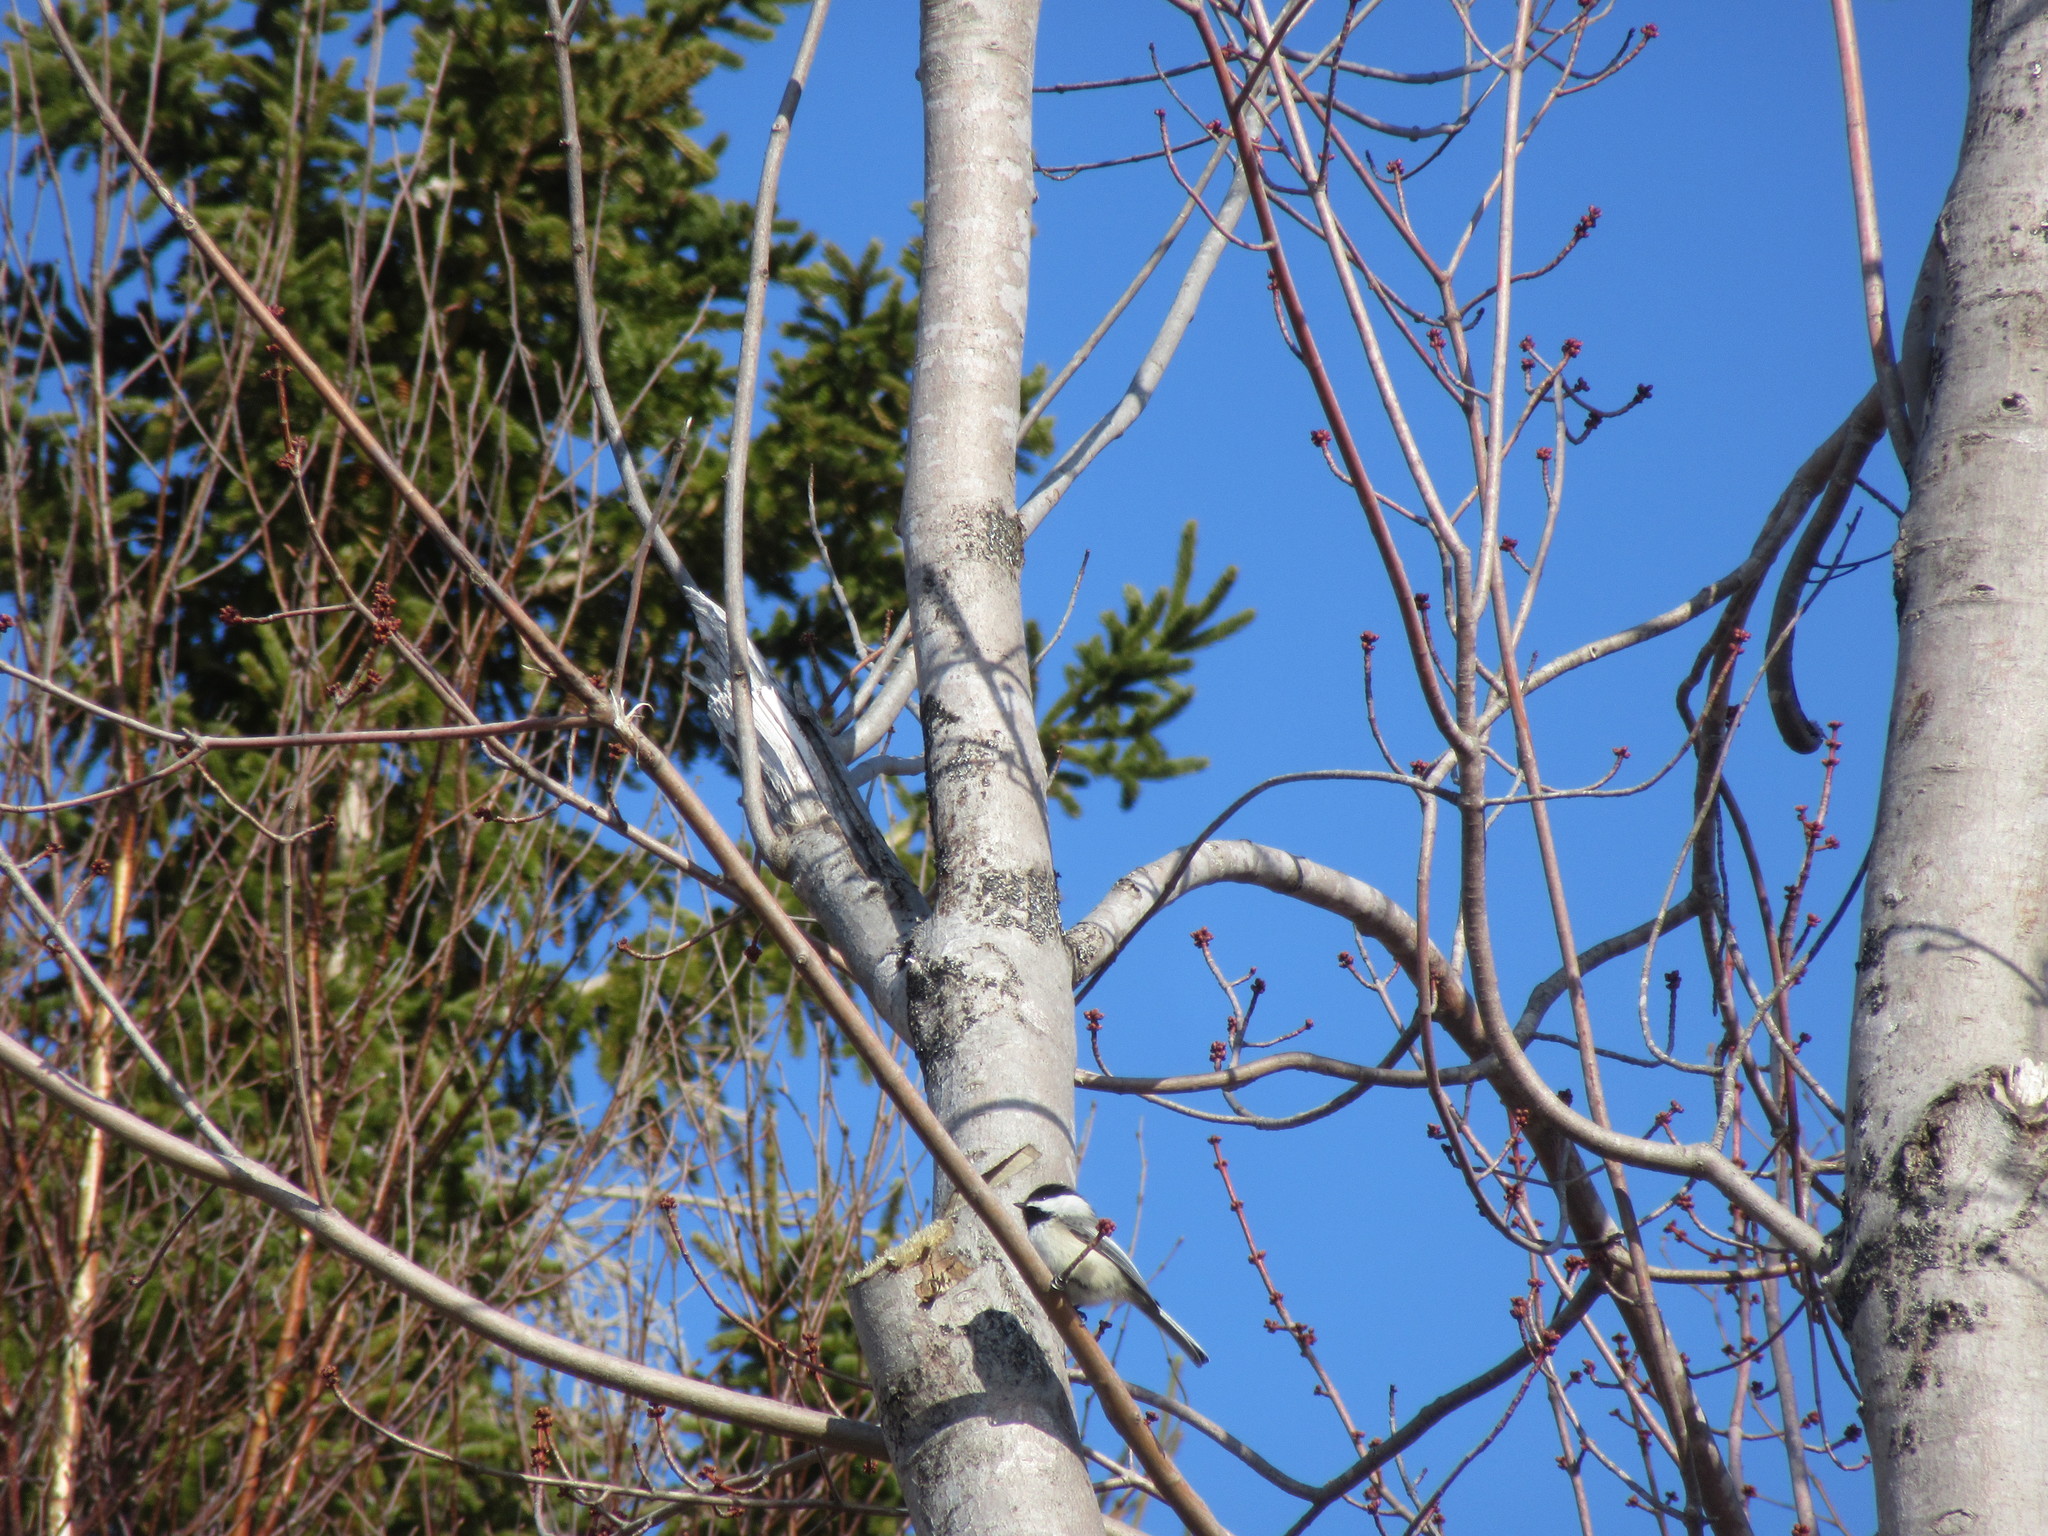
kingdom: Animalia
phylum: Chordata
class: Aves
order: Passeriformes
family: Paridae
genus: Poecile
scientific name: Poecile atricapillus
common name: Black-capped chickadee
